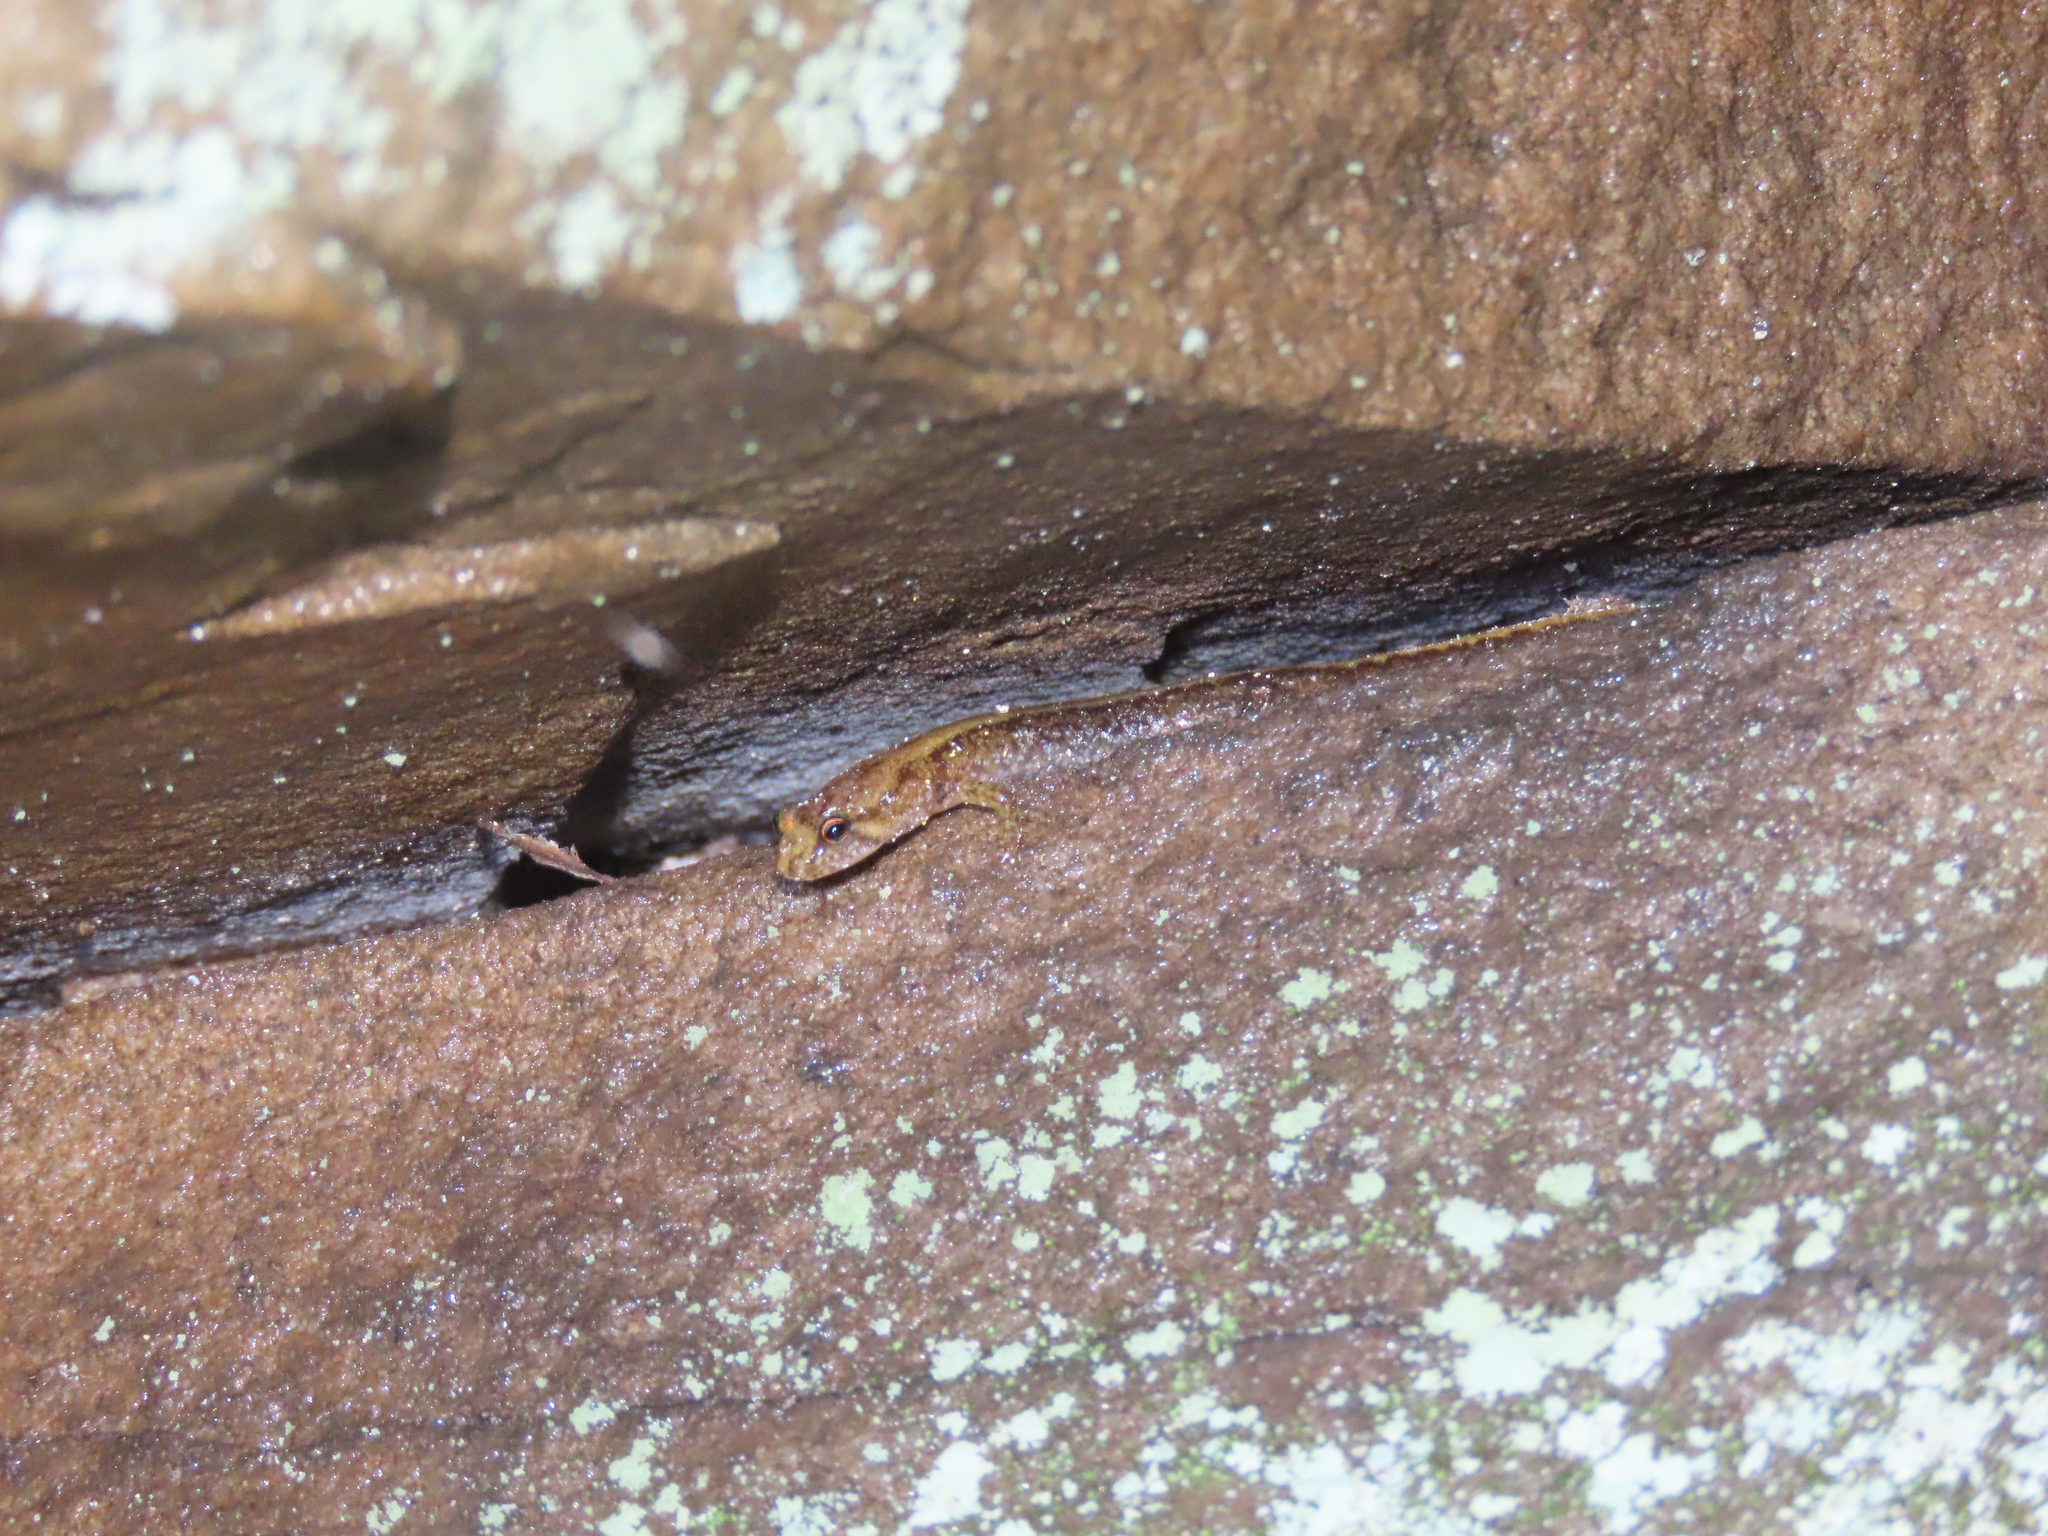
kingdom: Animalia
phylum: Chordata
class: Amphibia
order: Caudata
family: Plethodontidae
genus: Desmognathus
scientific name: Desmognathus ochrophaeus
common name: Allegheny mountain dusky salamander
